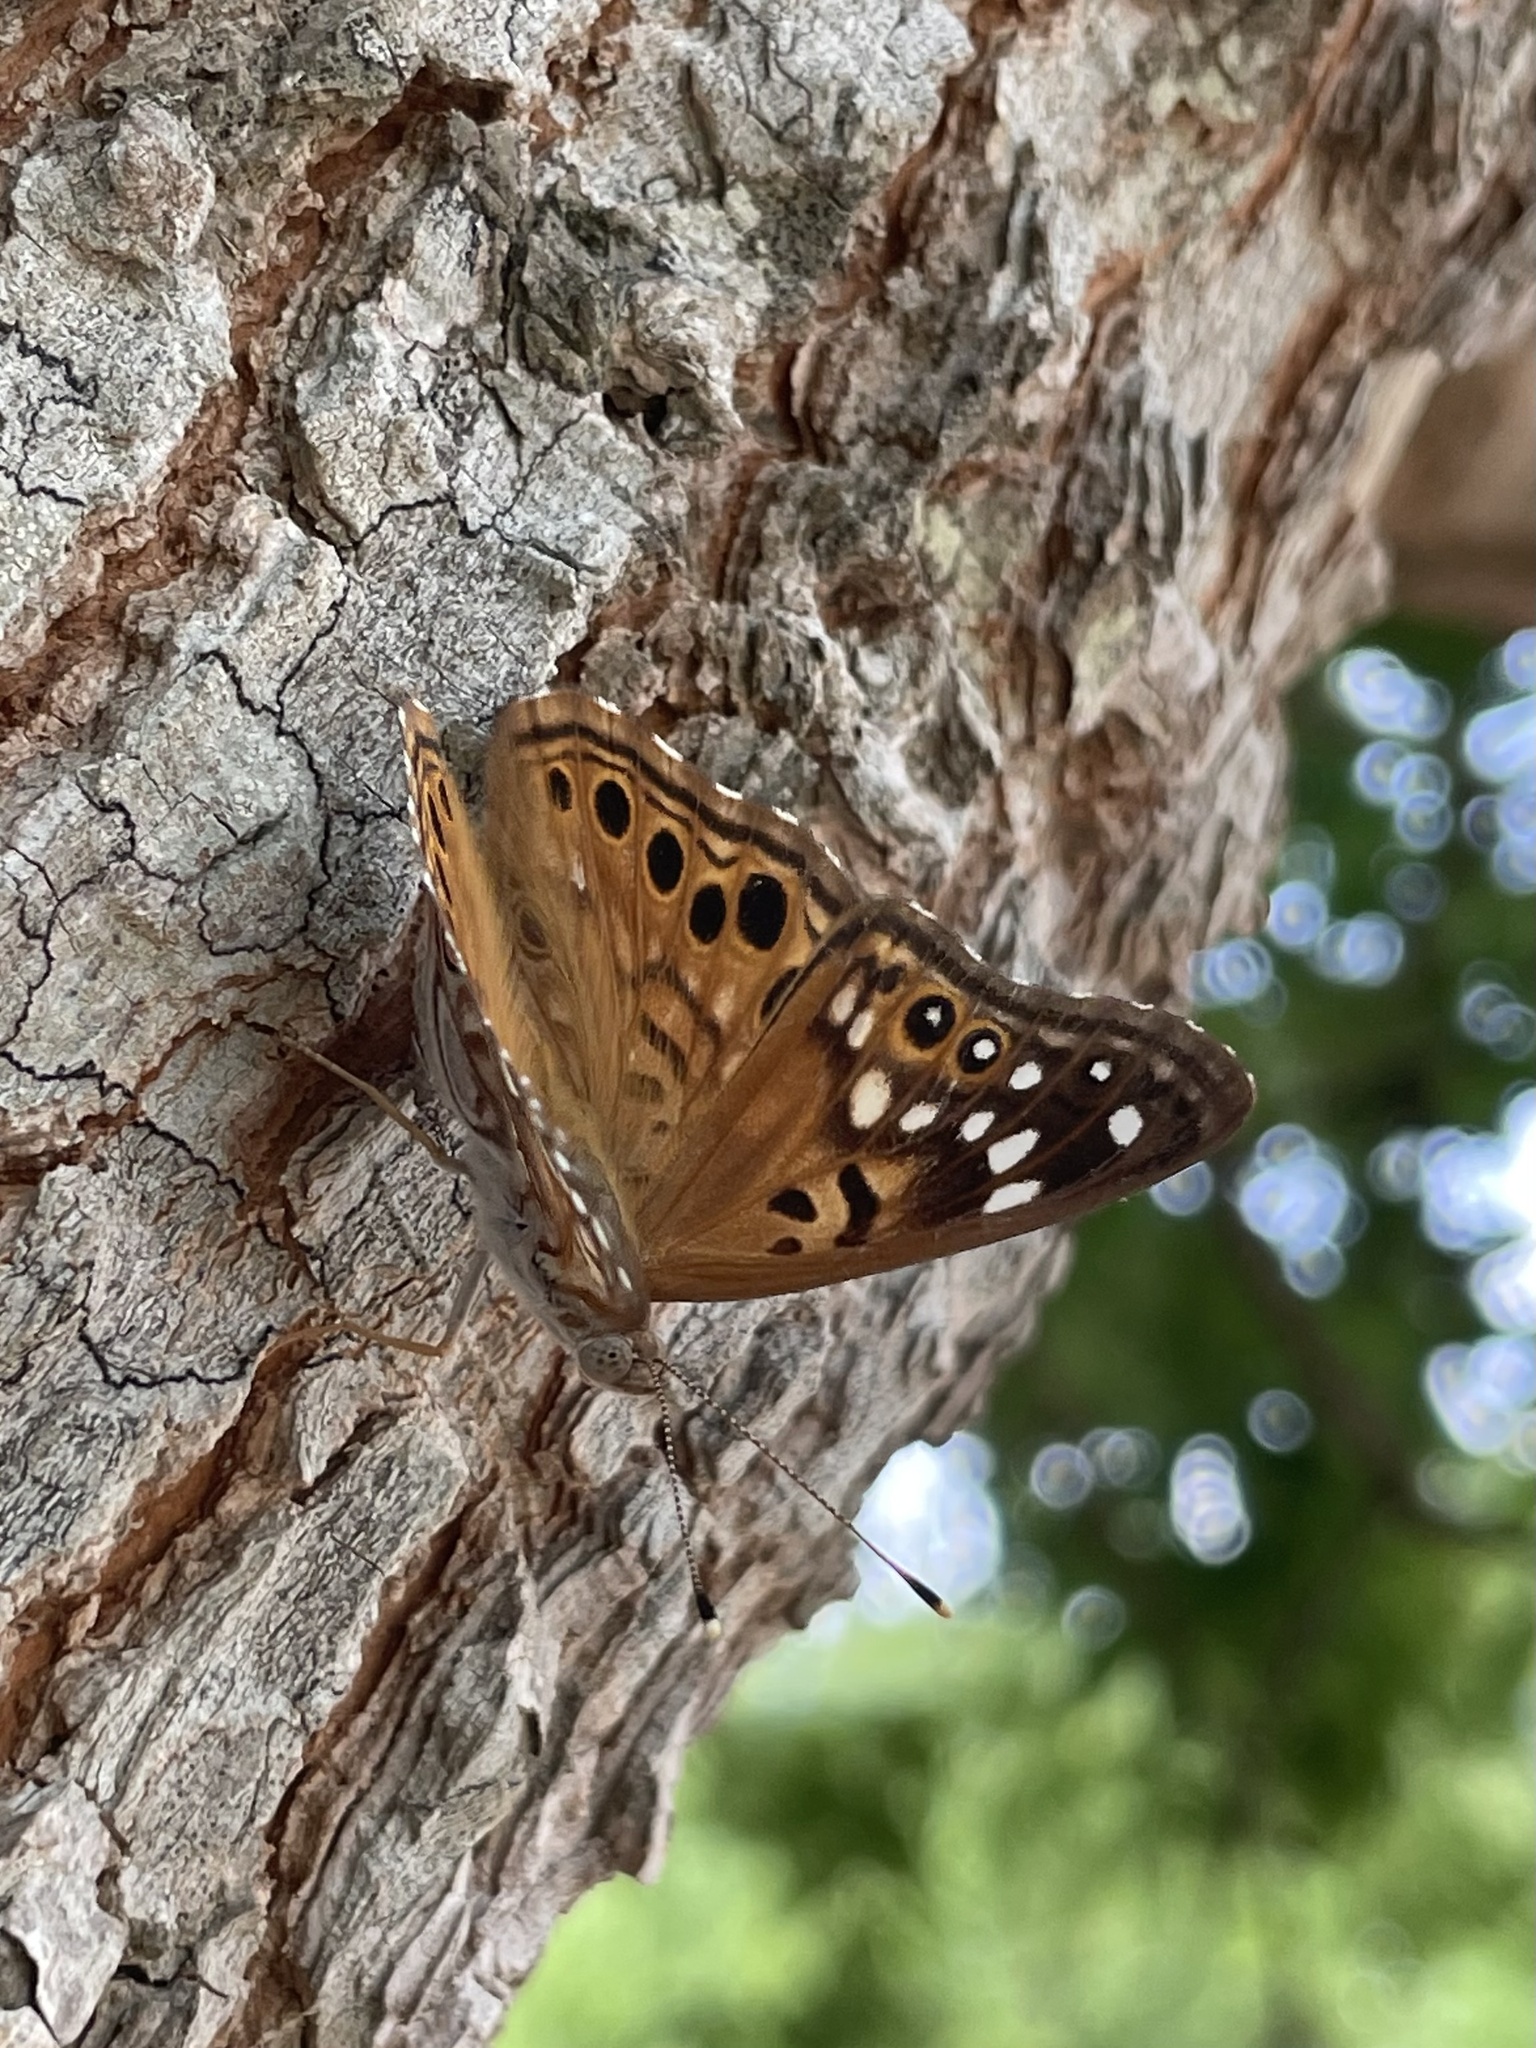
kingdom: Animalia
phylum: Arthropoda
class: Insecta
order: Lepidoptera
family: Nymphalidae
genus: Asterocampa
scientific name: Asterocampa celtis
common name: Hackberry emperor
